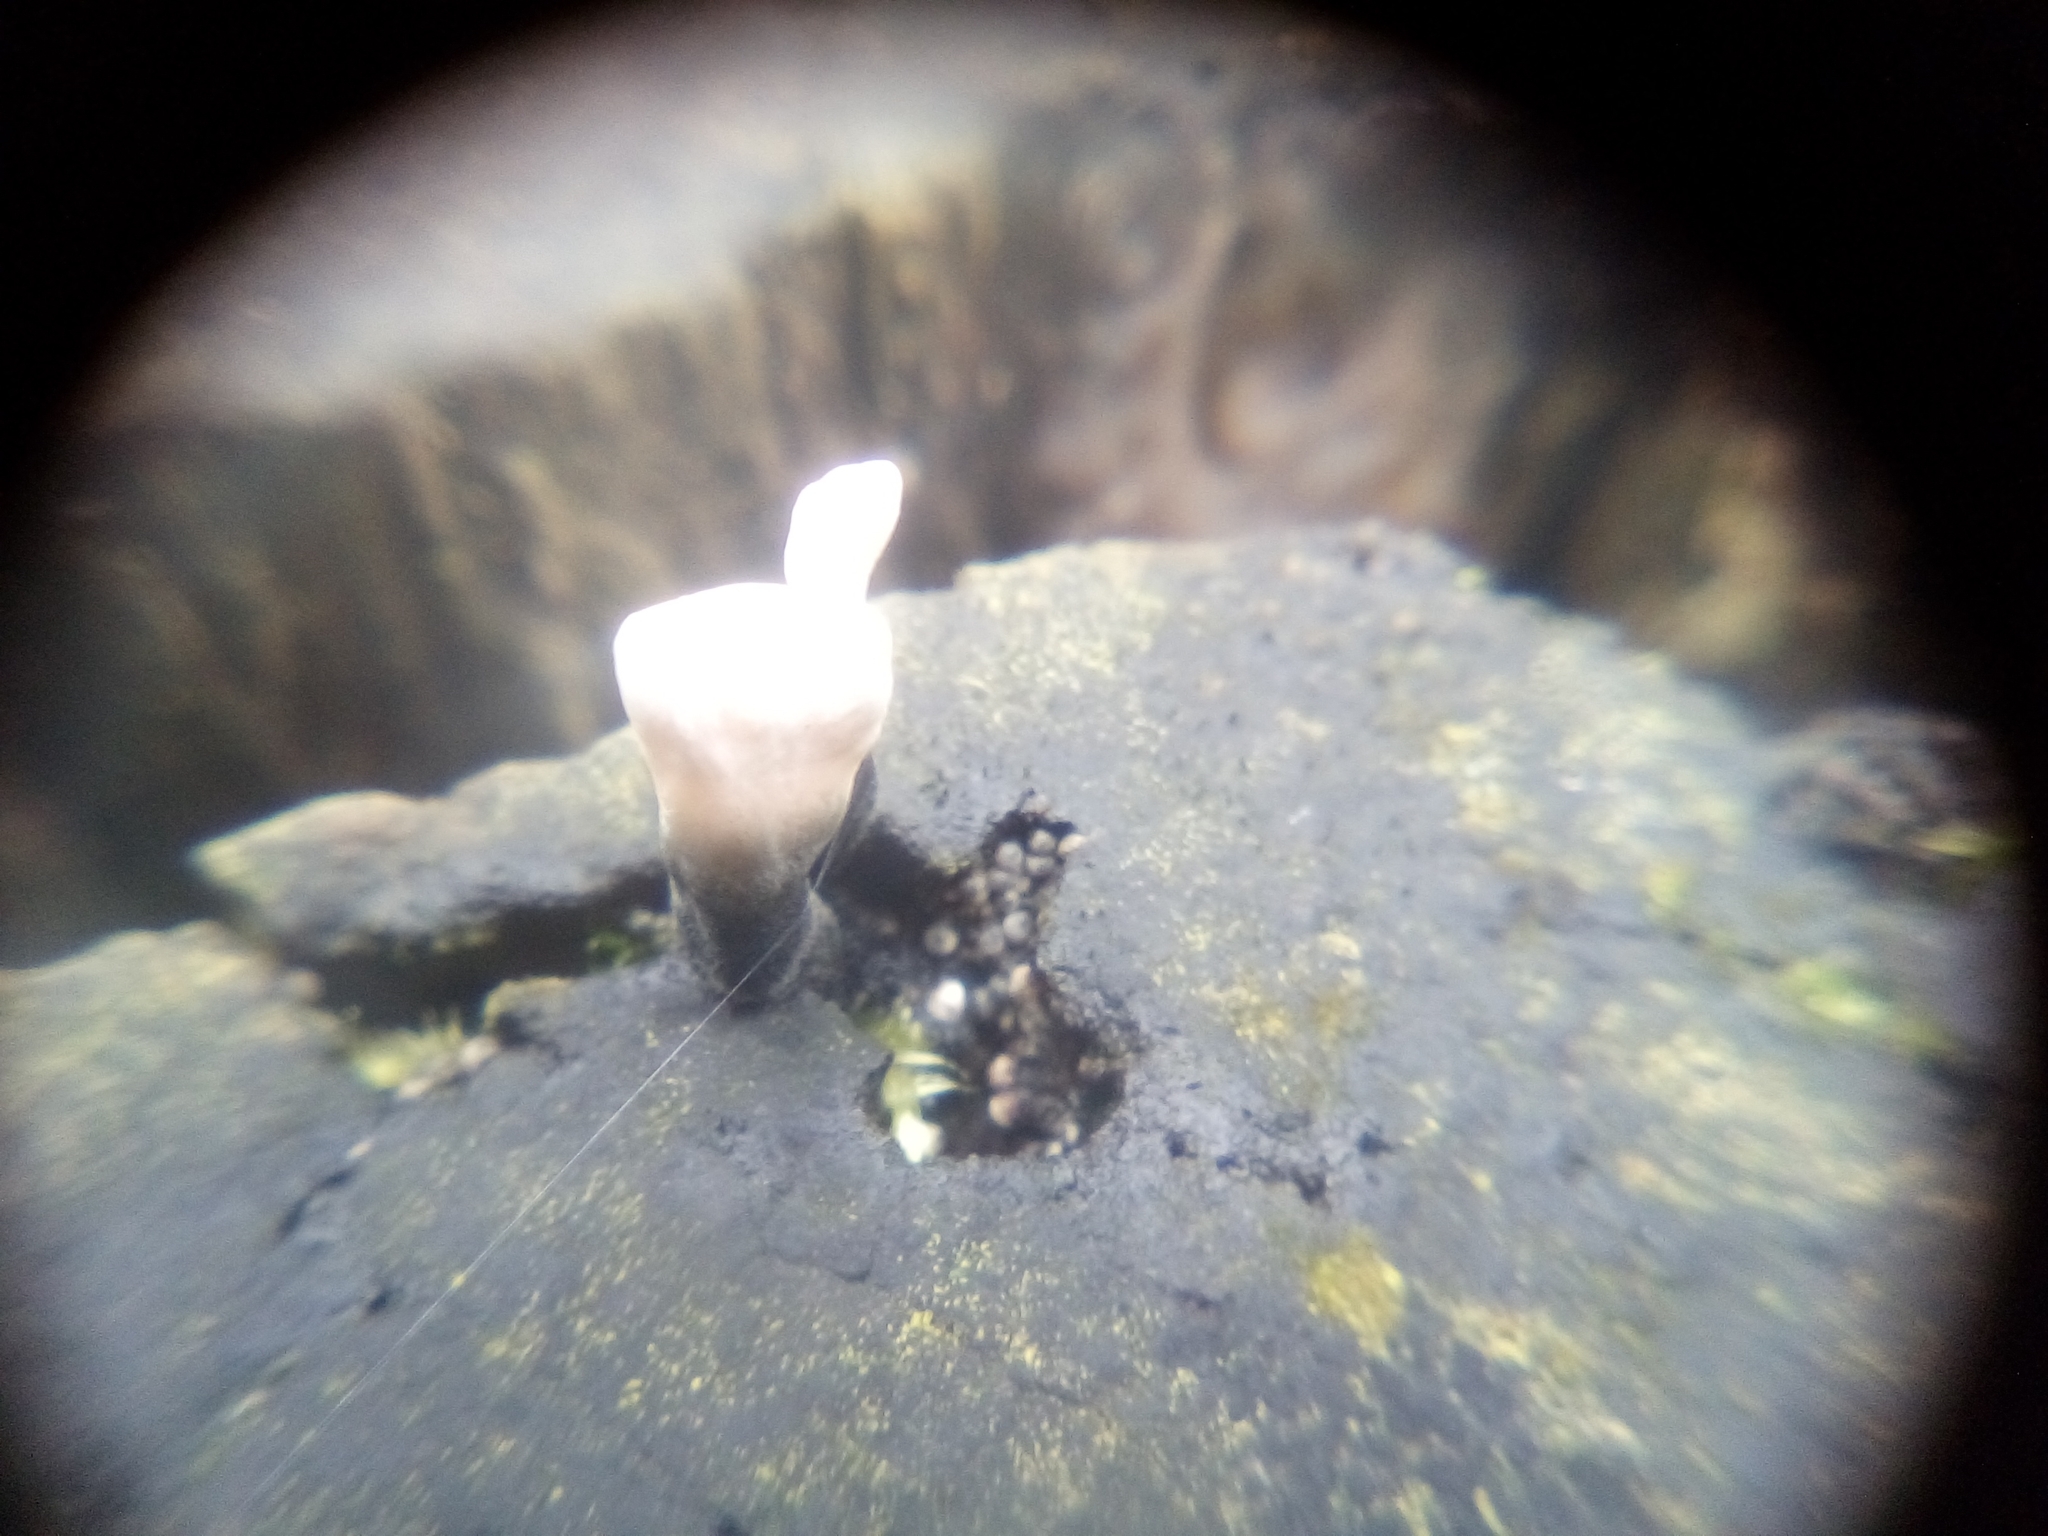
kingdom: Fungi
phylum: Ascomycota
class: Sordariomycetes
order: Xylariales
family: Xylariaceae
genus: Xylaria
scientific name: Xylaria hypoxylon
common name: Candle-snuff fungus
